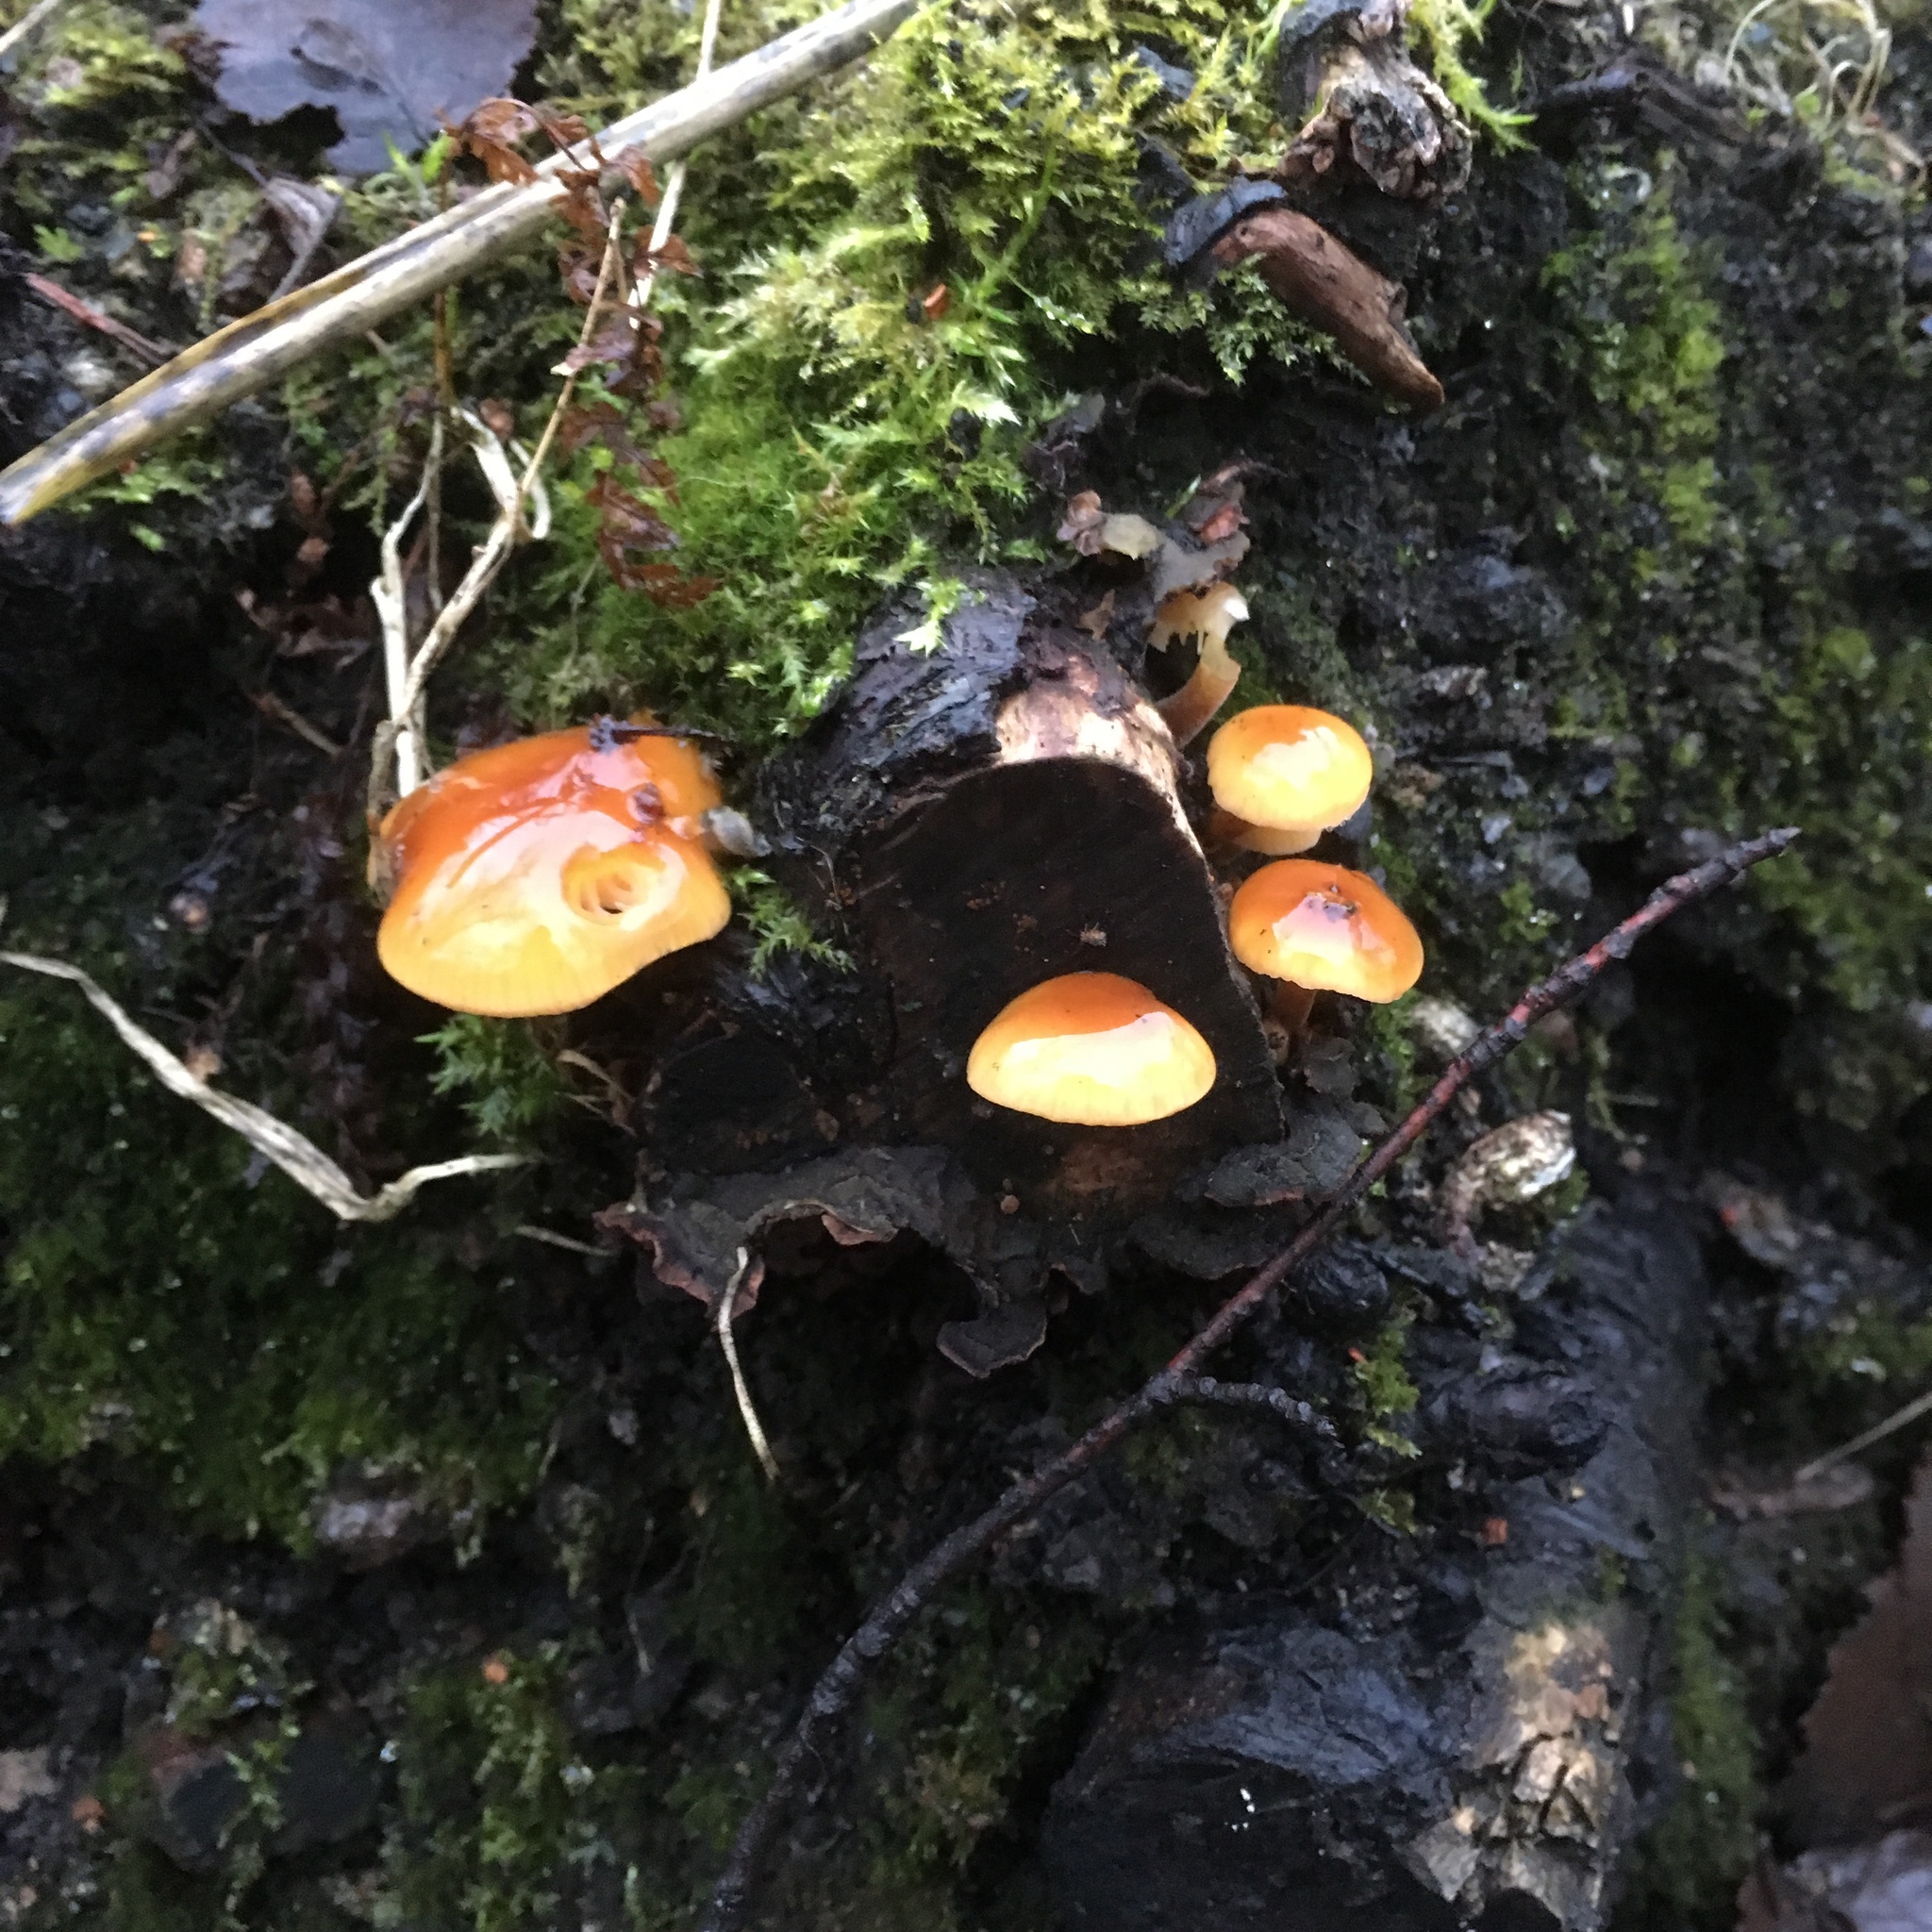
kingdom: Fungi
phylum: Basidiomycota
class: Agaricomycetes
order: Agaricales
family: Physalacriaceae
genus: Flammulina
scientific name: Flammulina
